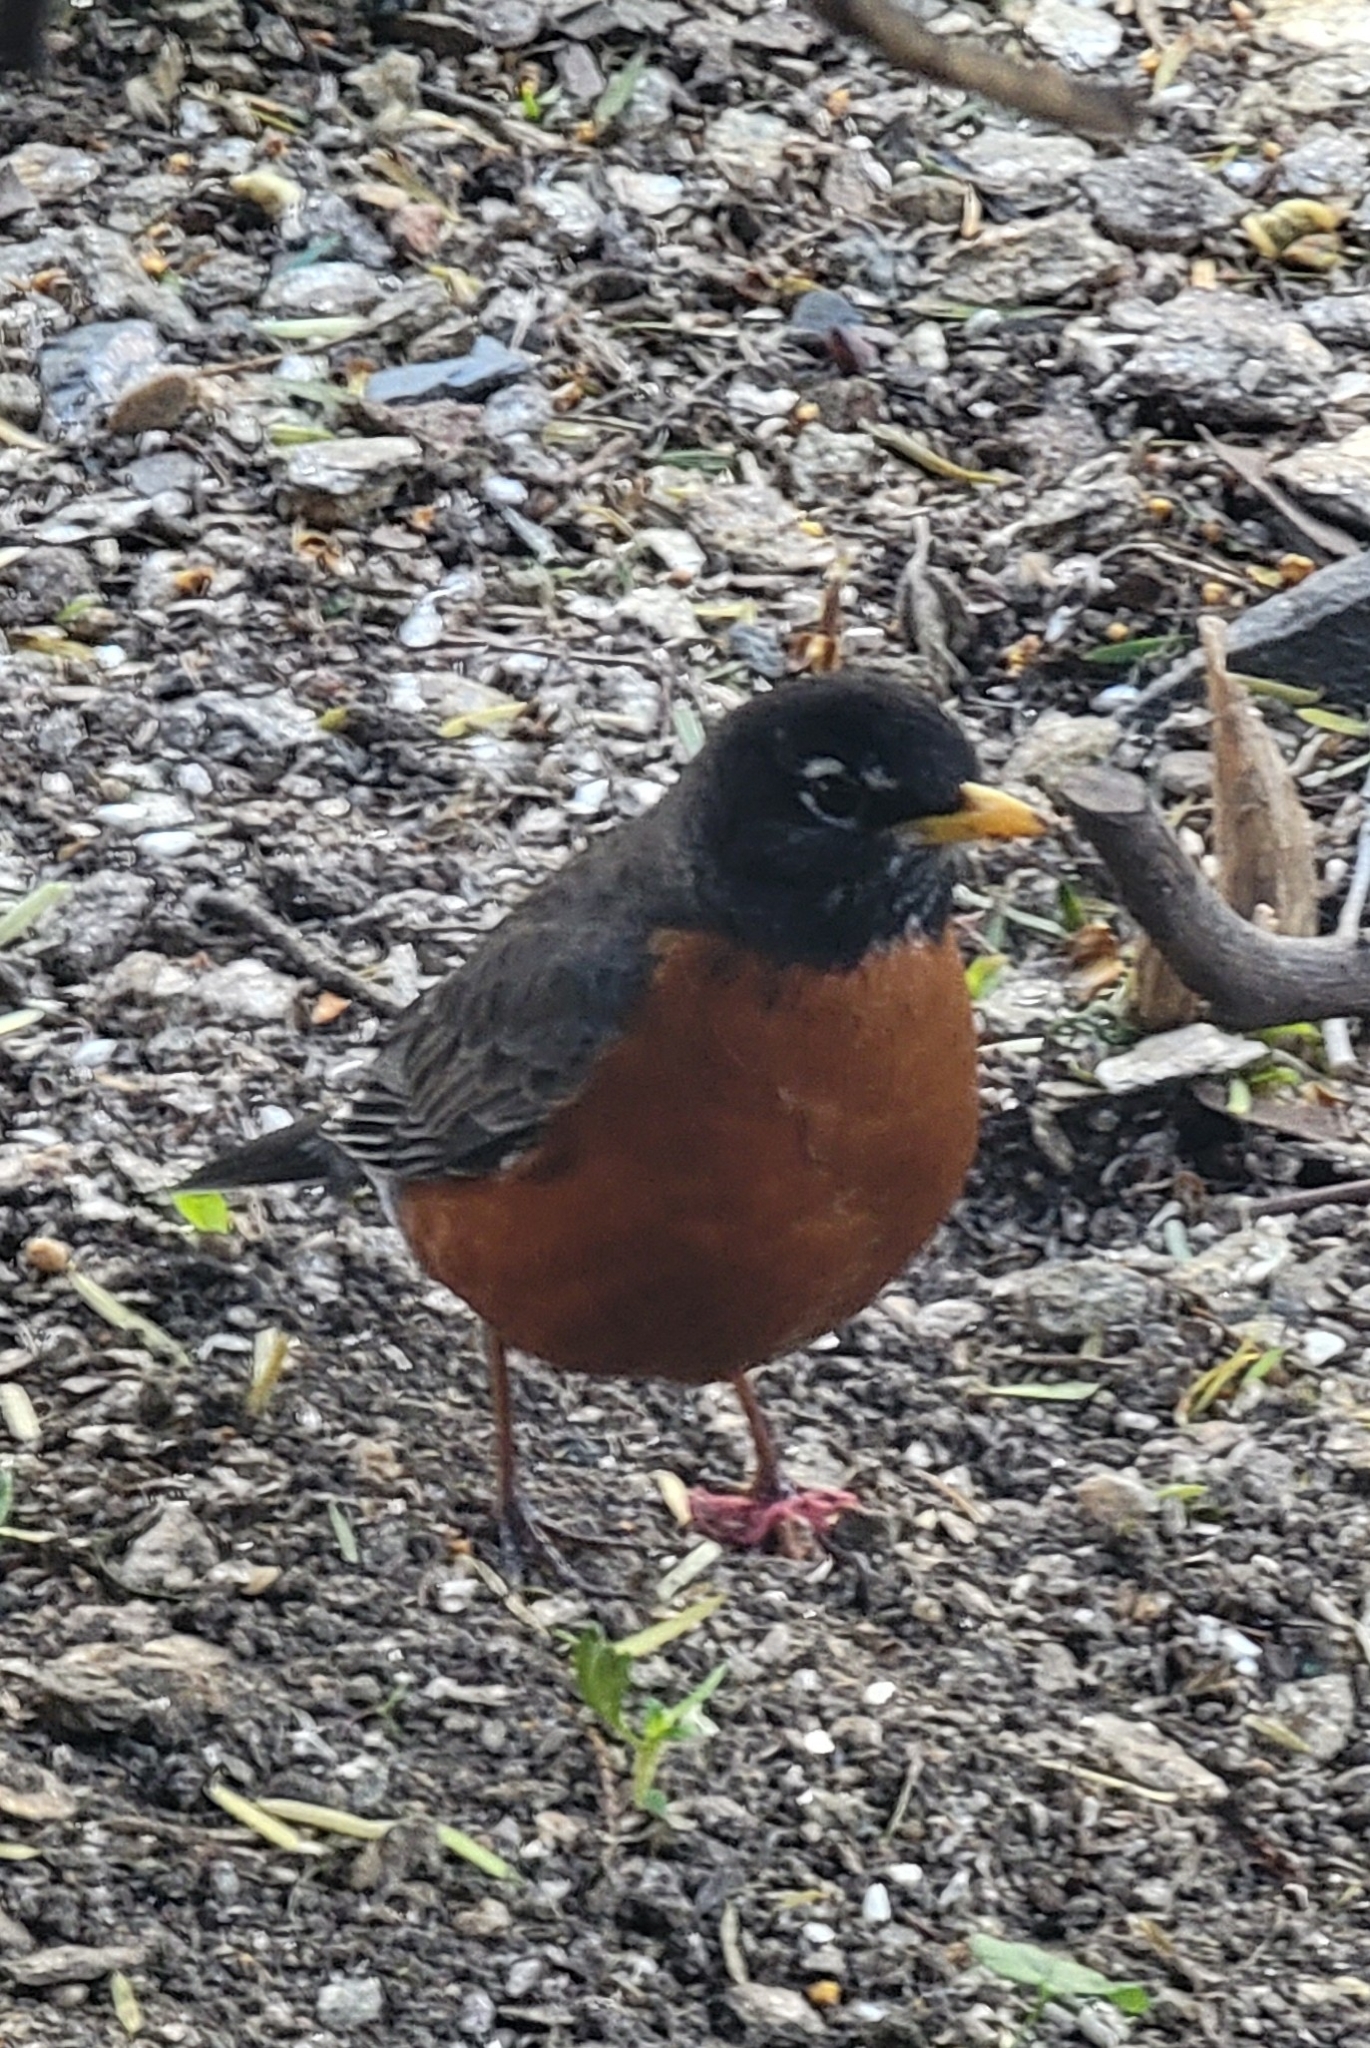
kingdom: Animalia
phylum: Chordata
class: Aves
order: Passeriformes
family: Turdidae
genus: Turdus
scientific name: Turdus migratorius
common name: American robin
